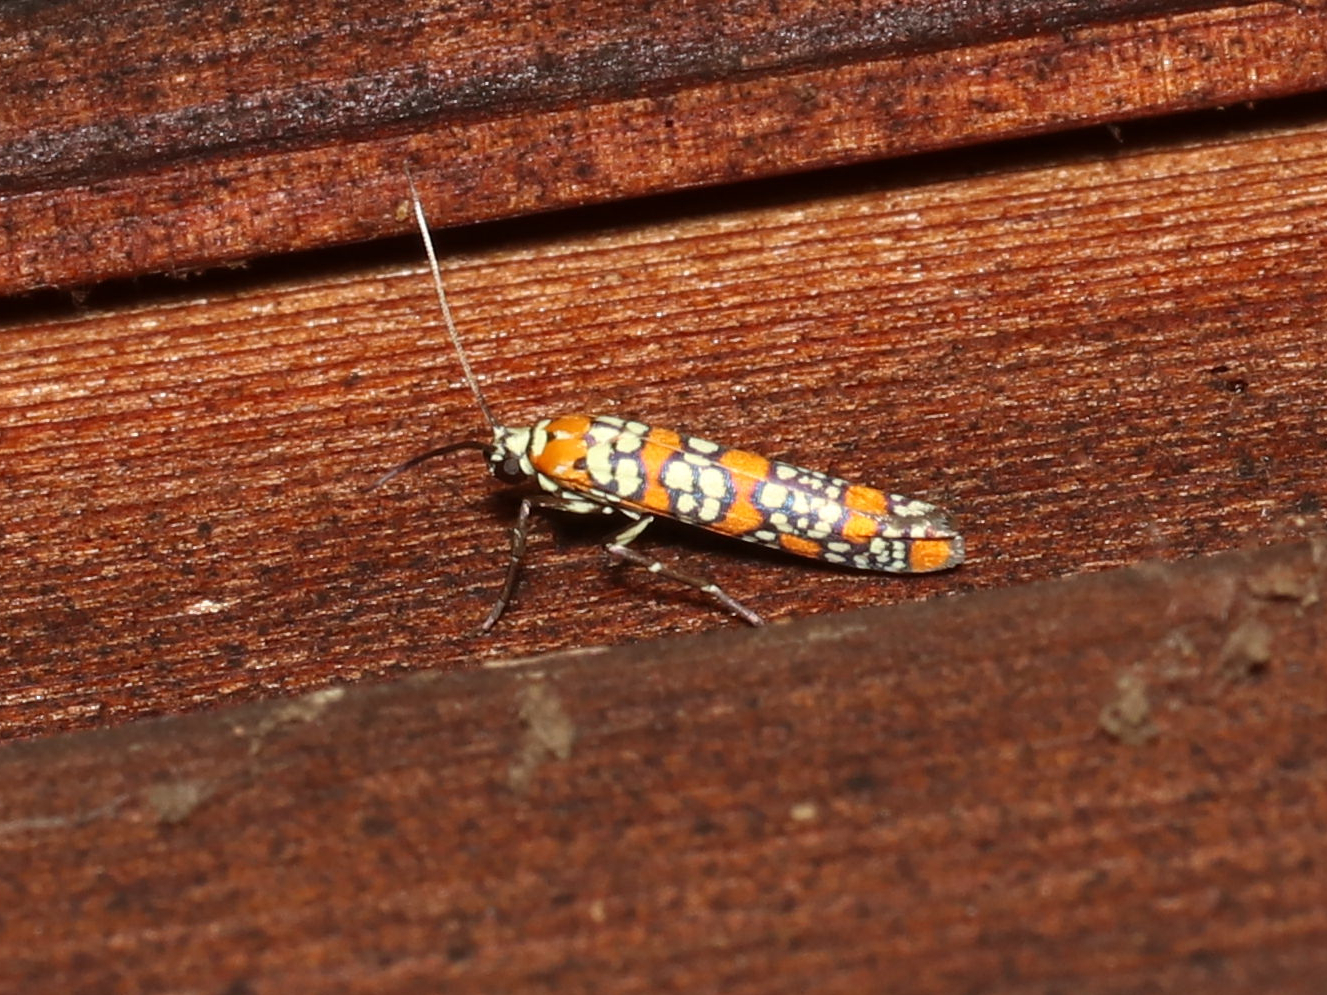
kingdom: Animalia
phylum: Arthropoda
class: Insecta
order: Lepidoptera
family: Attevidae
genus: Atteva
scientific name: Atteva punctella
